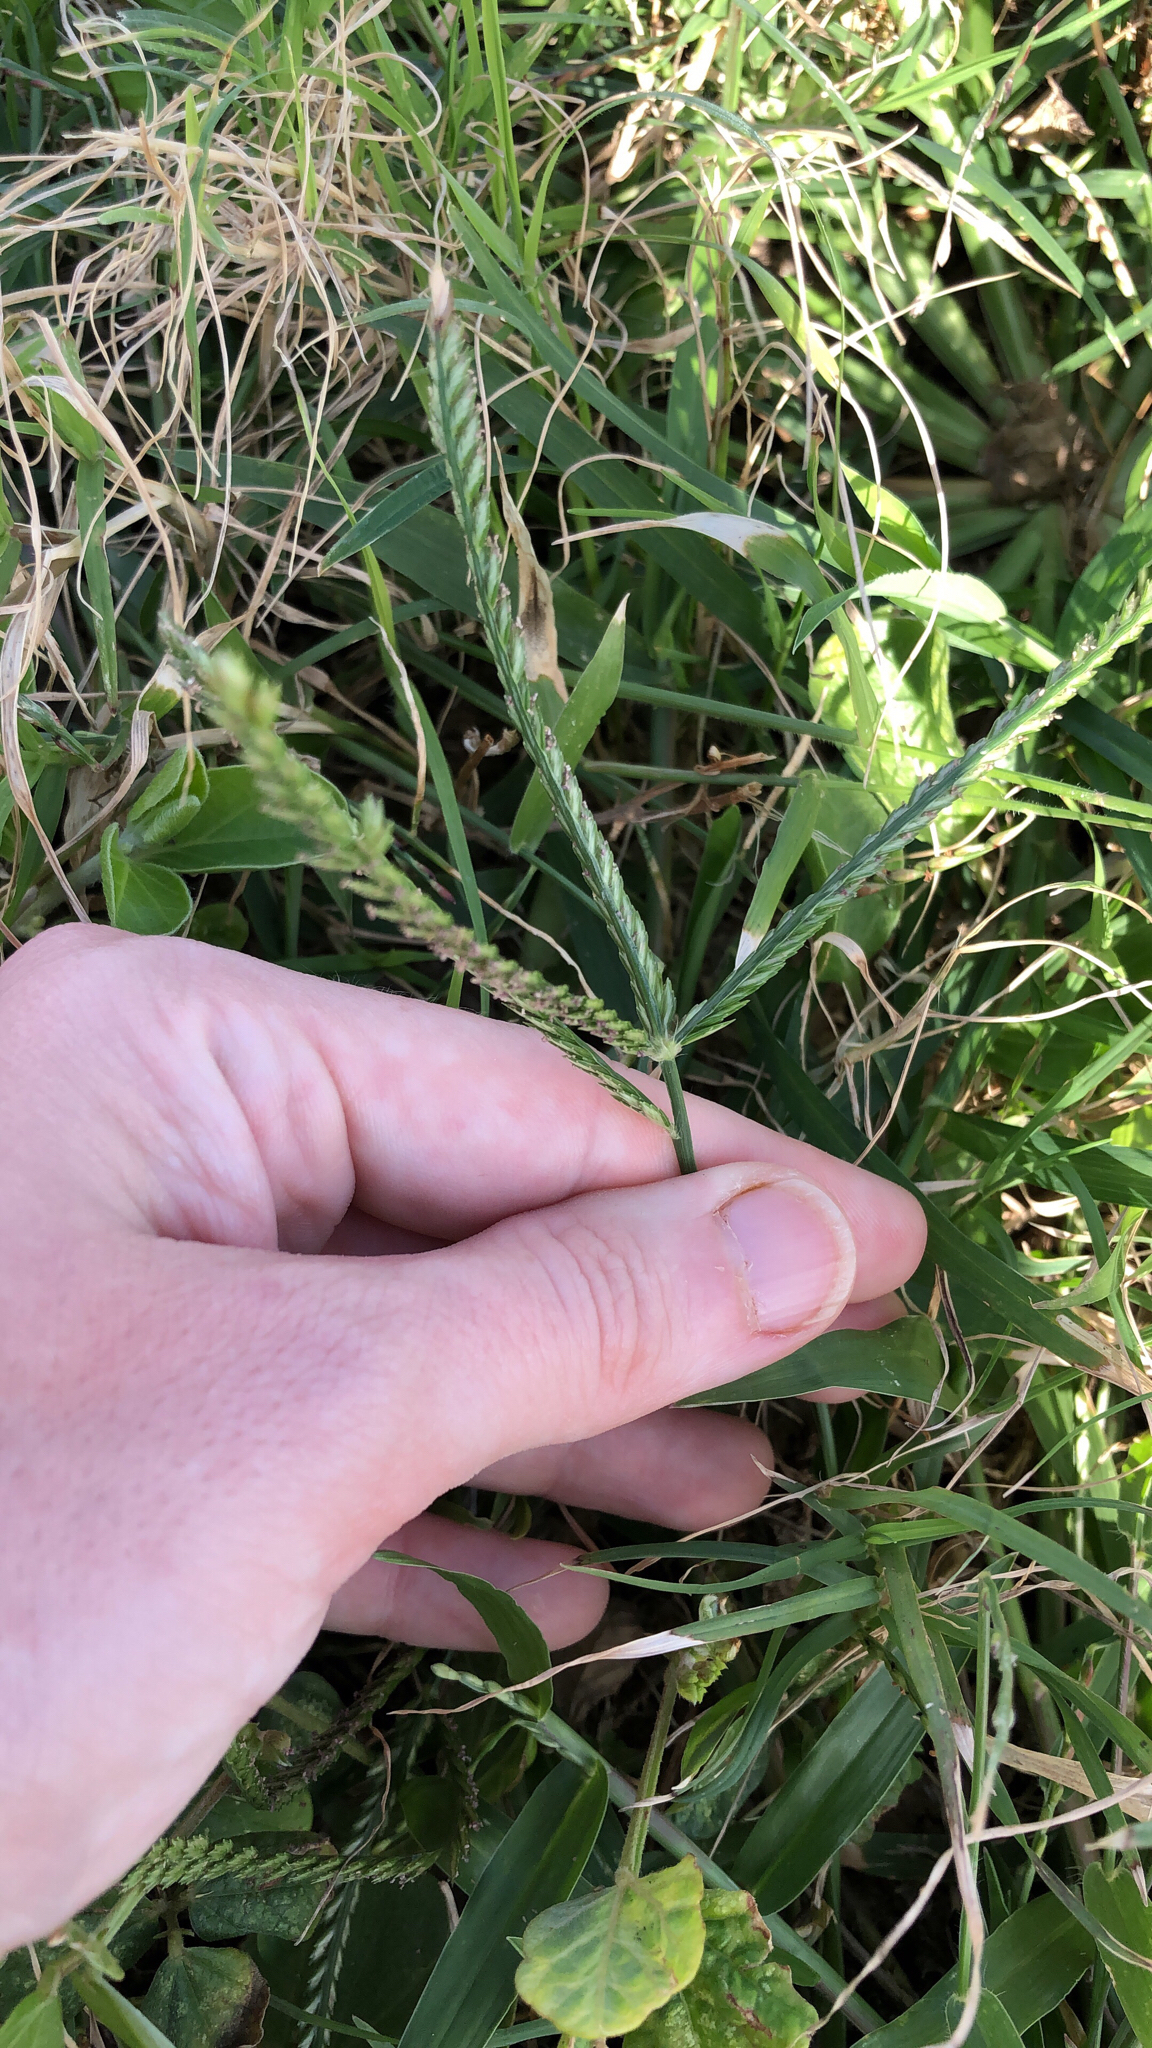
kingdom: Plantae
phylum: Tracheophyta
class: Liliopsida
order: Poales
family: Poaceae
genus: Eleusine
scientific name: Eleusine indica
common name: Yard-grass
